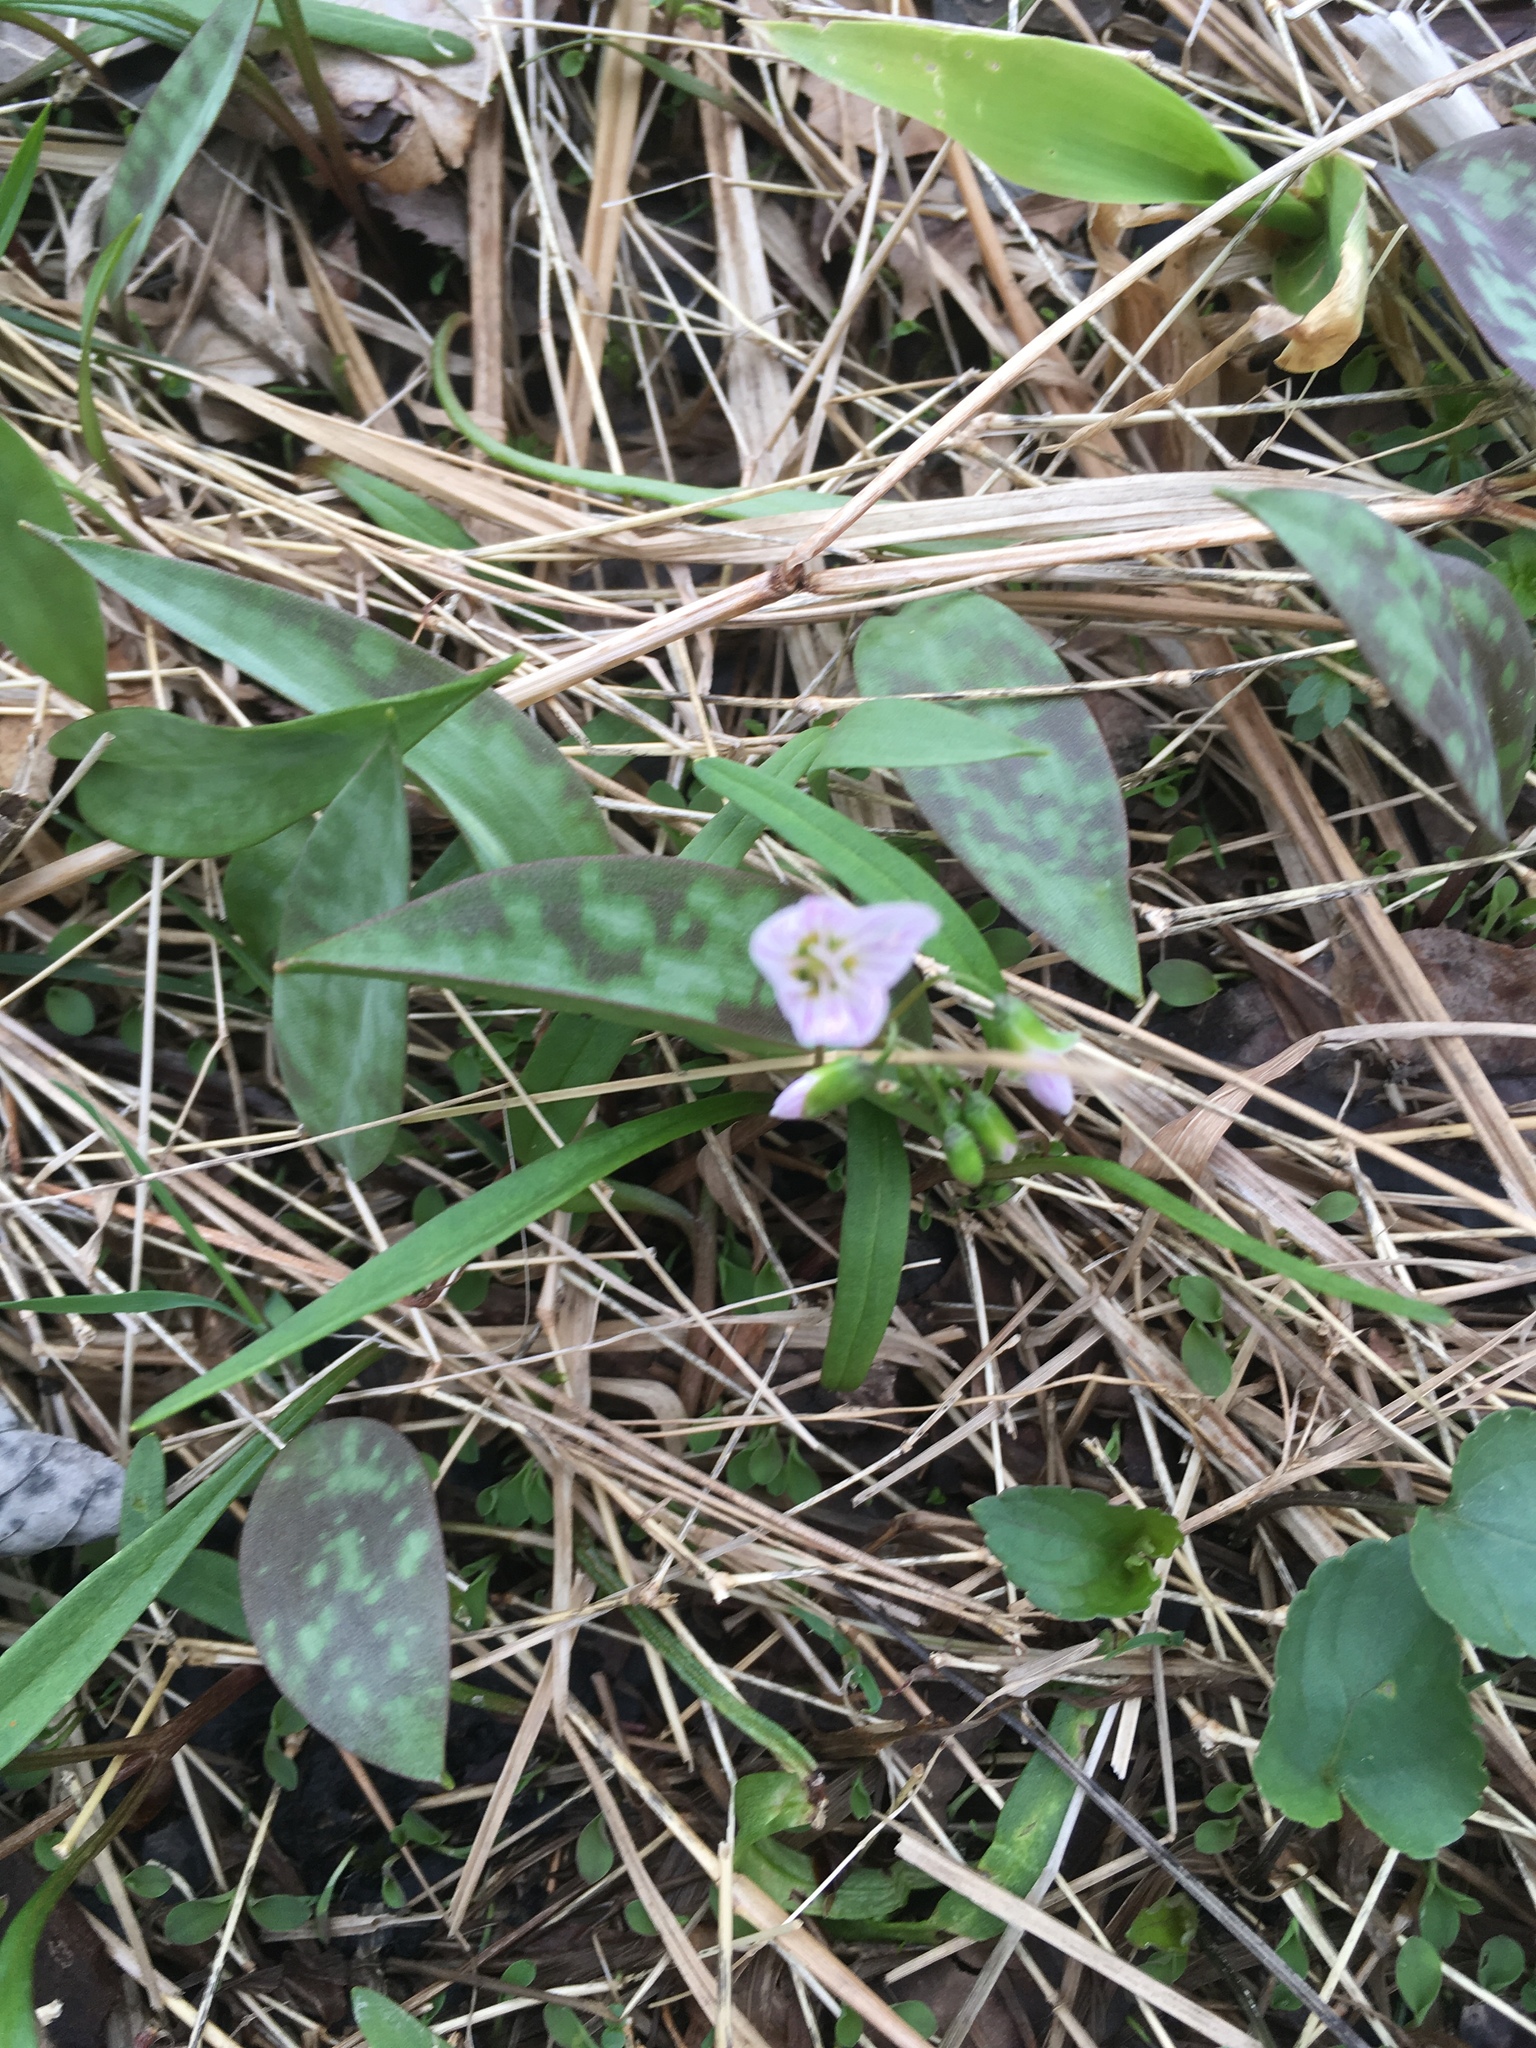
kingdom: Plantae
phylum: Tracheophyta
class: Magnoliopsida
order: Caryophyllales
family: Montiaceae
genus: Claytonia
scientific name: Claytonia virginica
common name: Virginia springbeauty
